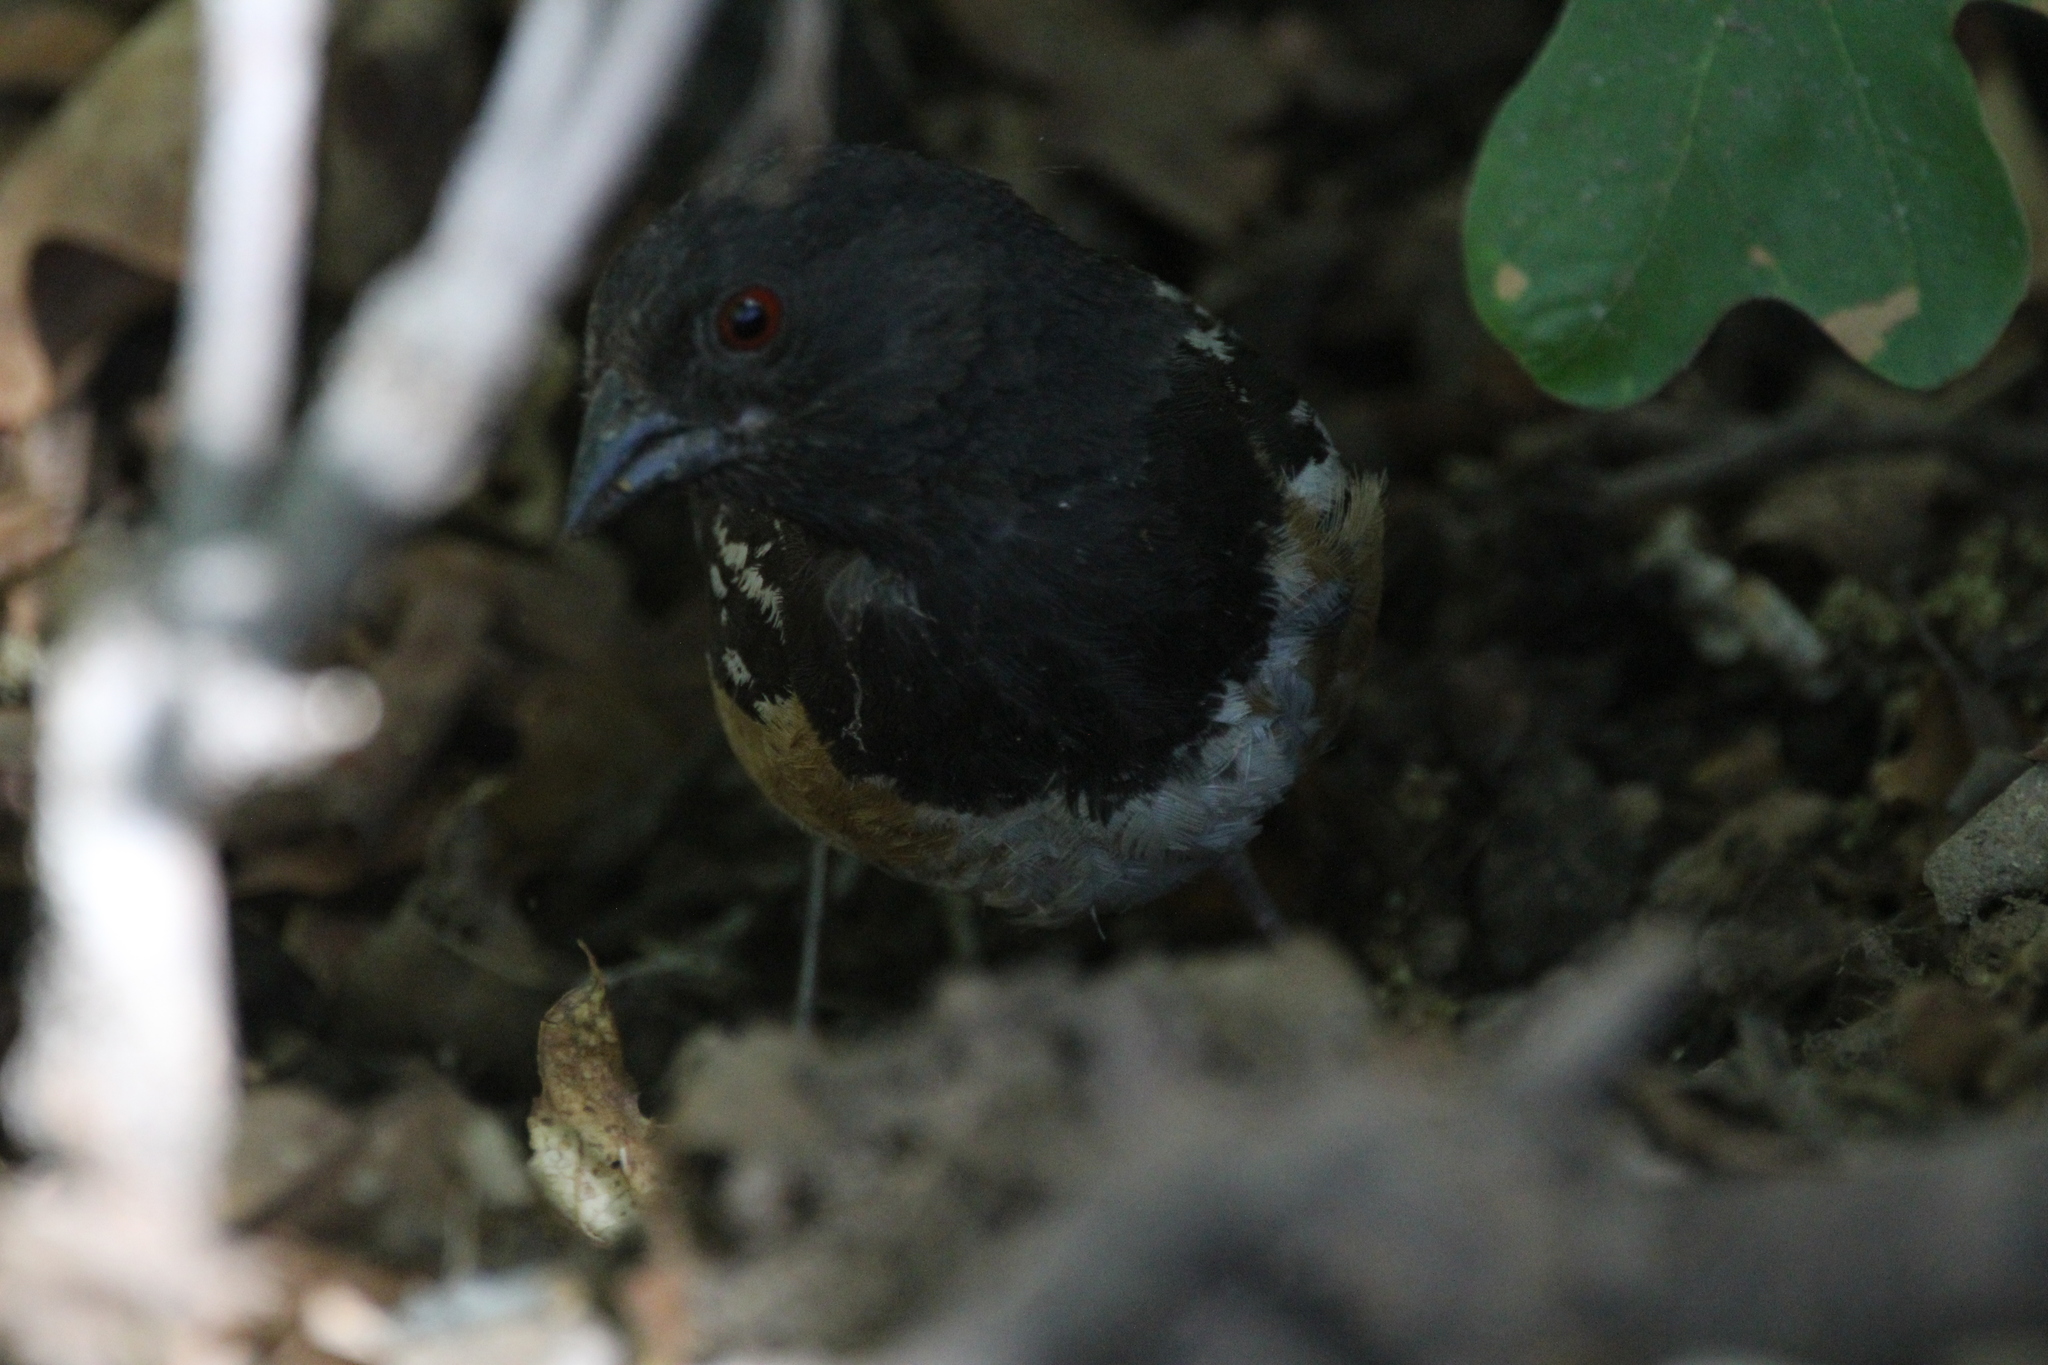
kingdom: Animalia
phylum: Chordata
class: Aves
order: Passeriformes
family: Passerellidae
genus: Pipilo
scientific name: Pipilo maculatus
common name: Spotted towhee
